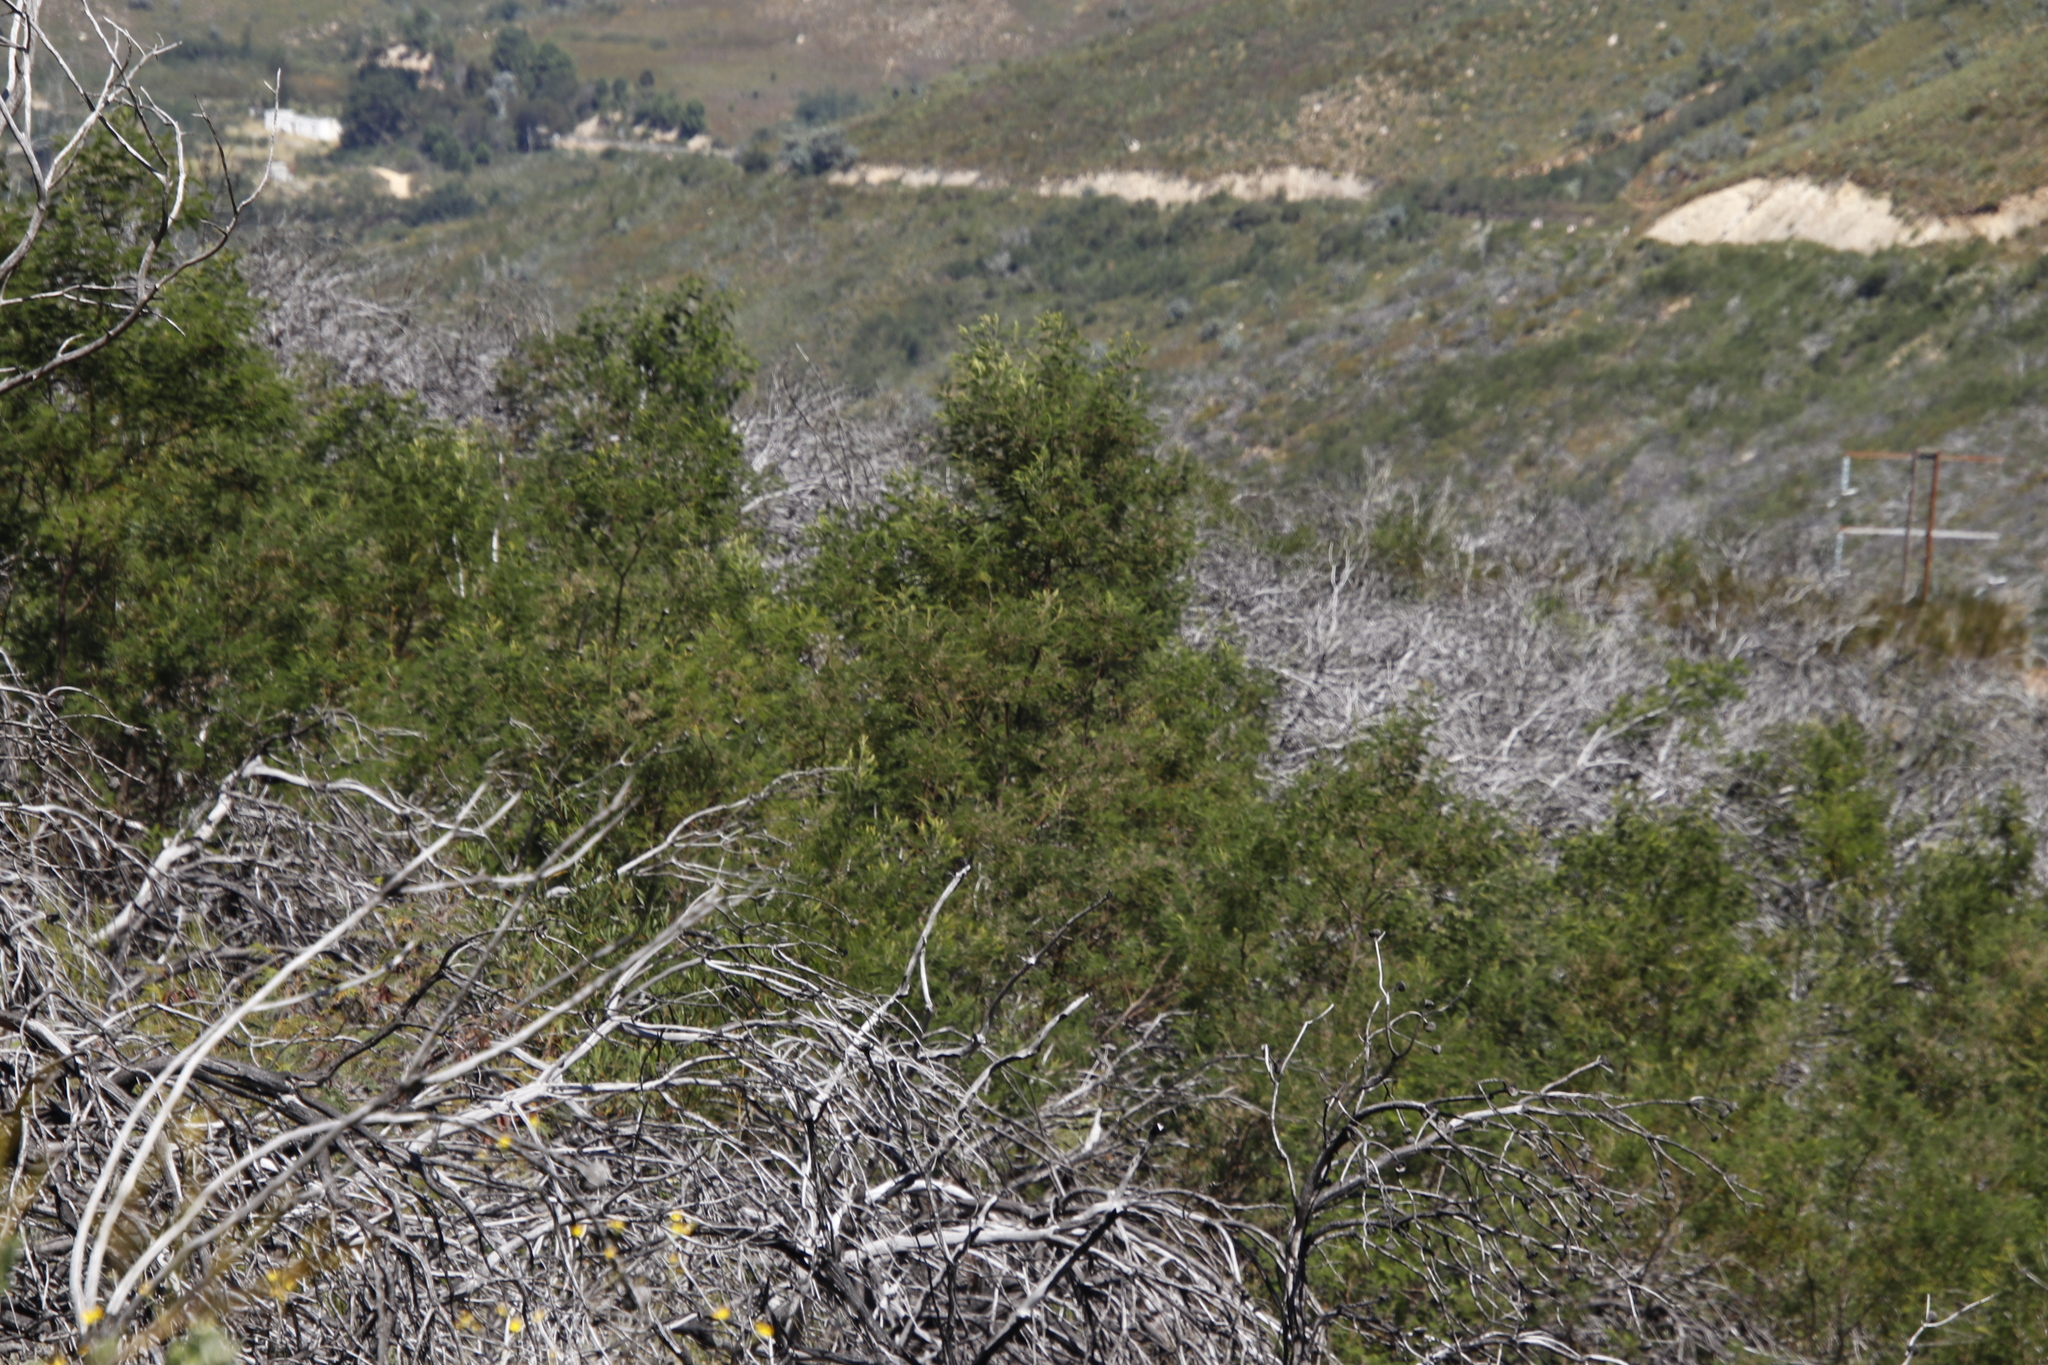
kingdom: Plantae
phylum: Tracheophyta
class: Magnoliopsida
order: Fabales
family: Fabaceae
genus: Acacia
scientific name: Acacia mearnsii
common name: Black wattle
